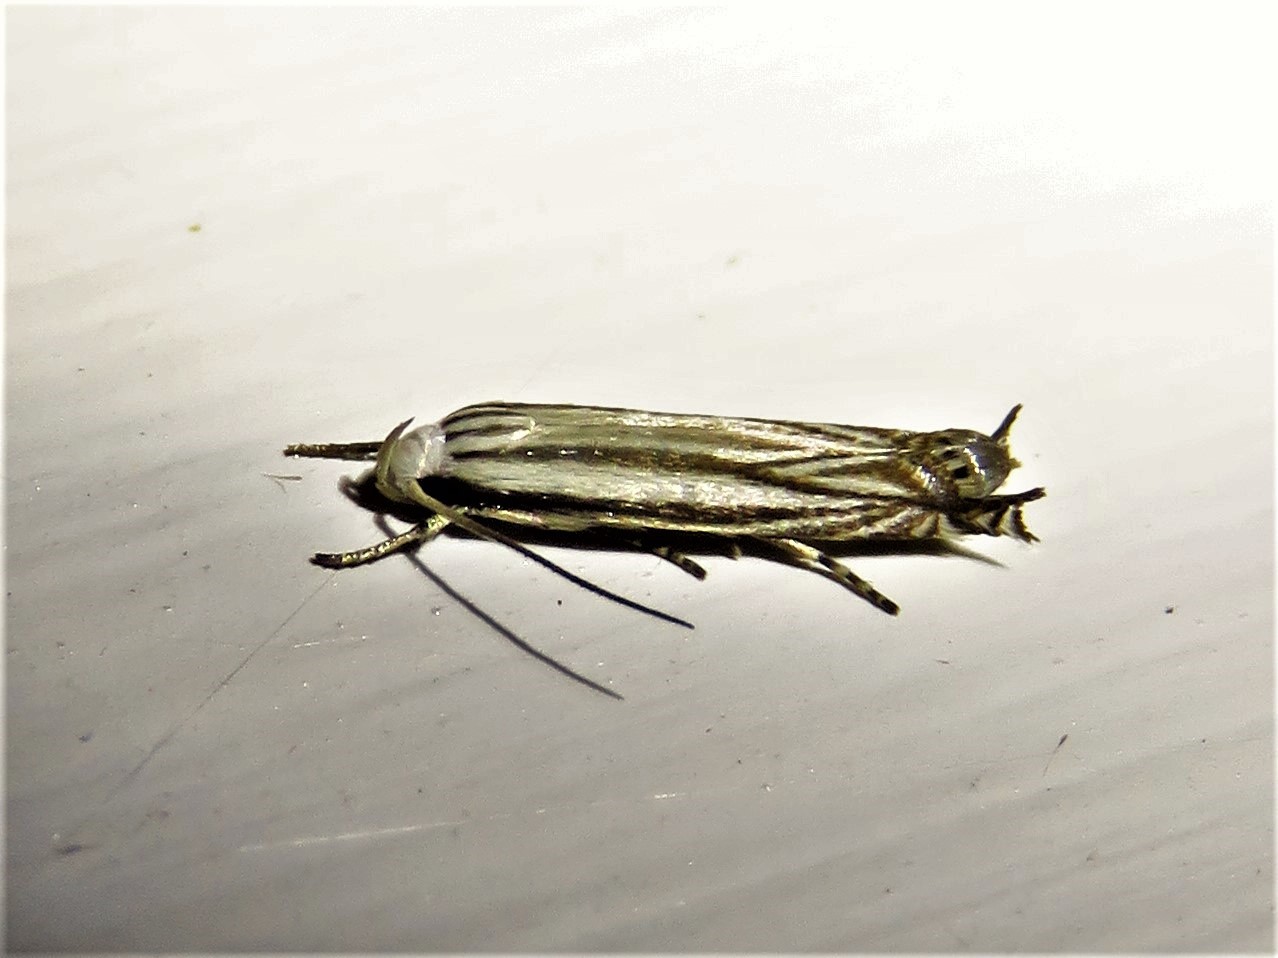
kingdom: Animalia
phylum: Arthropoda
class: Insecta
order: Lepidoptera
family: Gelechiidae
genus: Polyhymno
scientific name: Polyhymno luteostrigella
